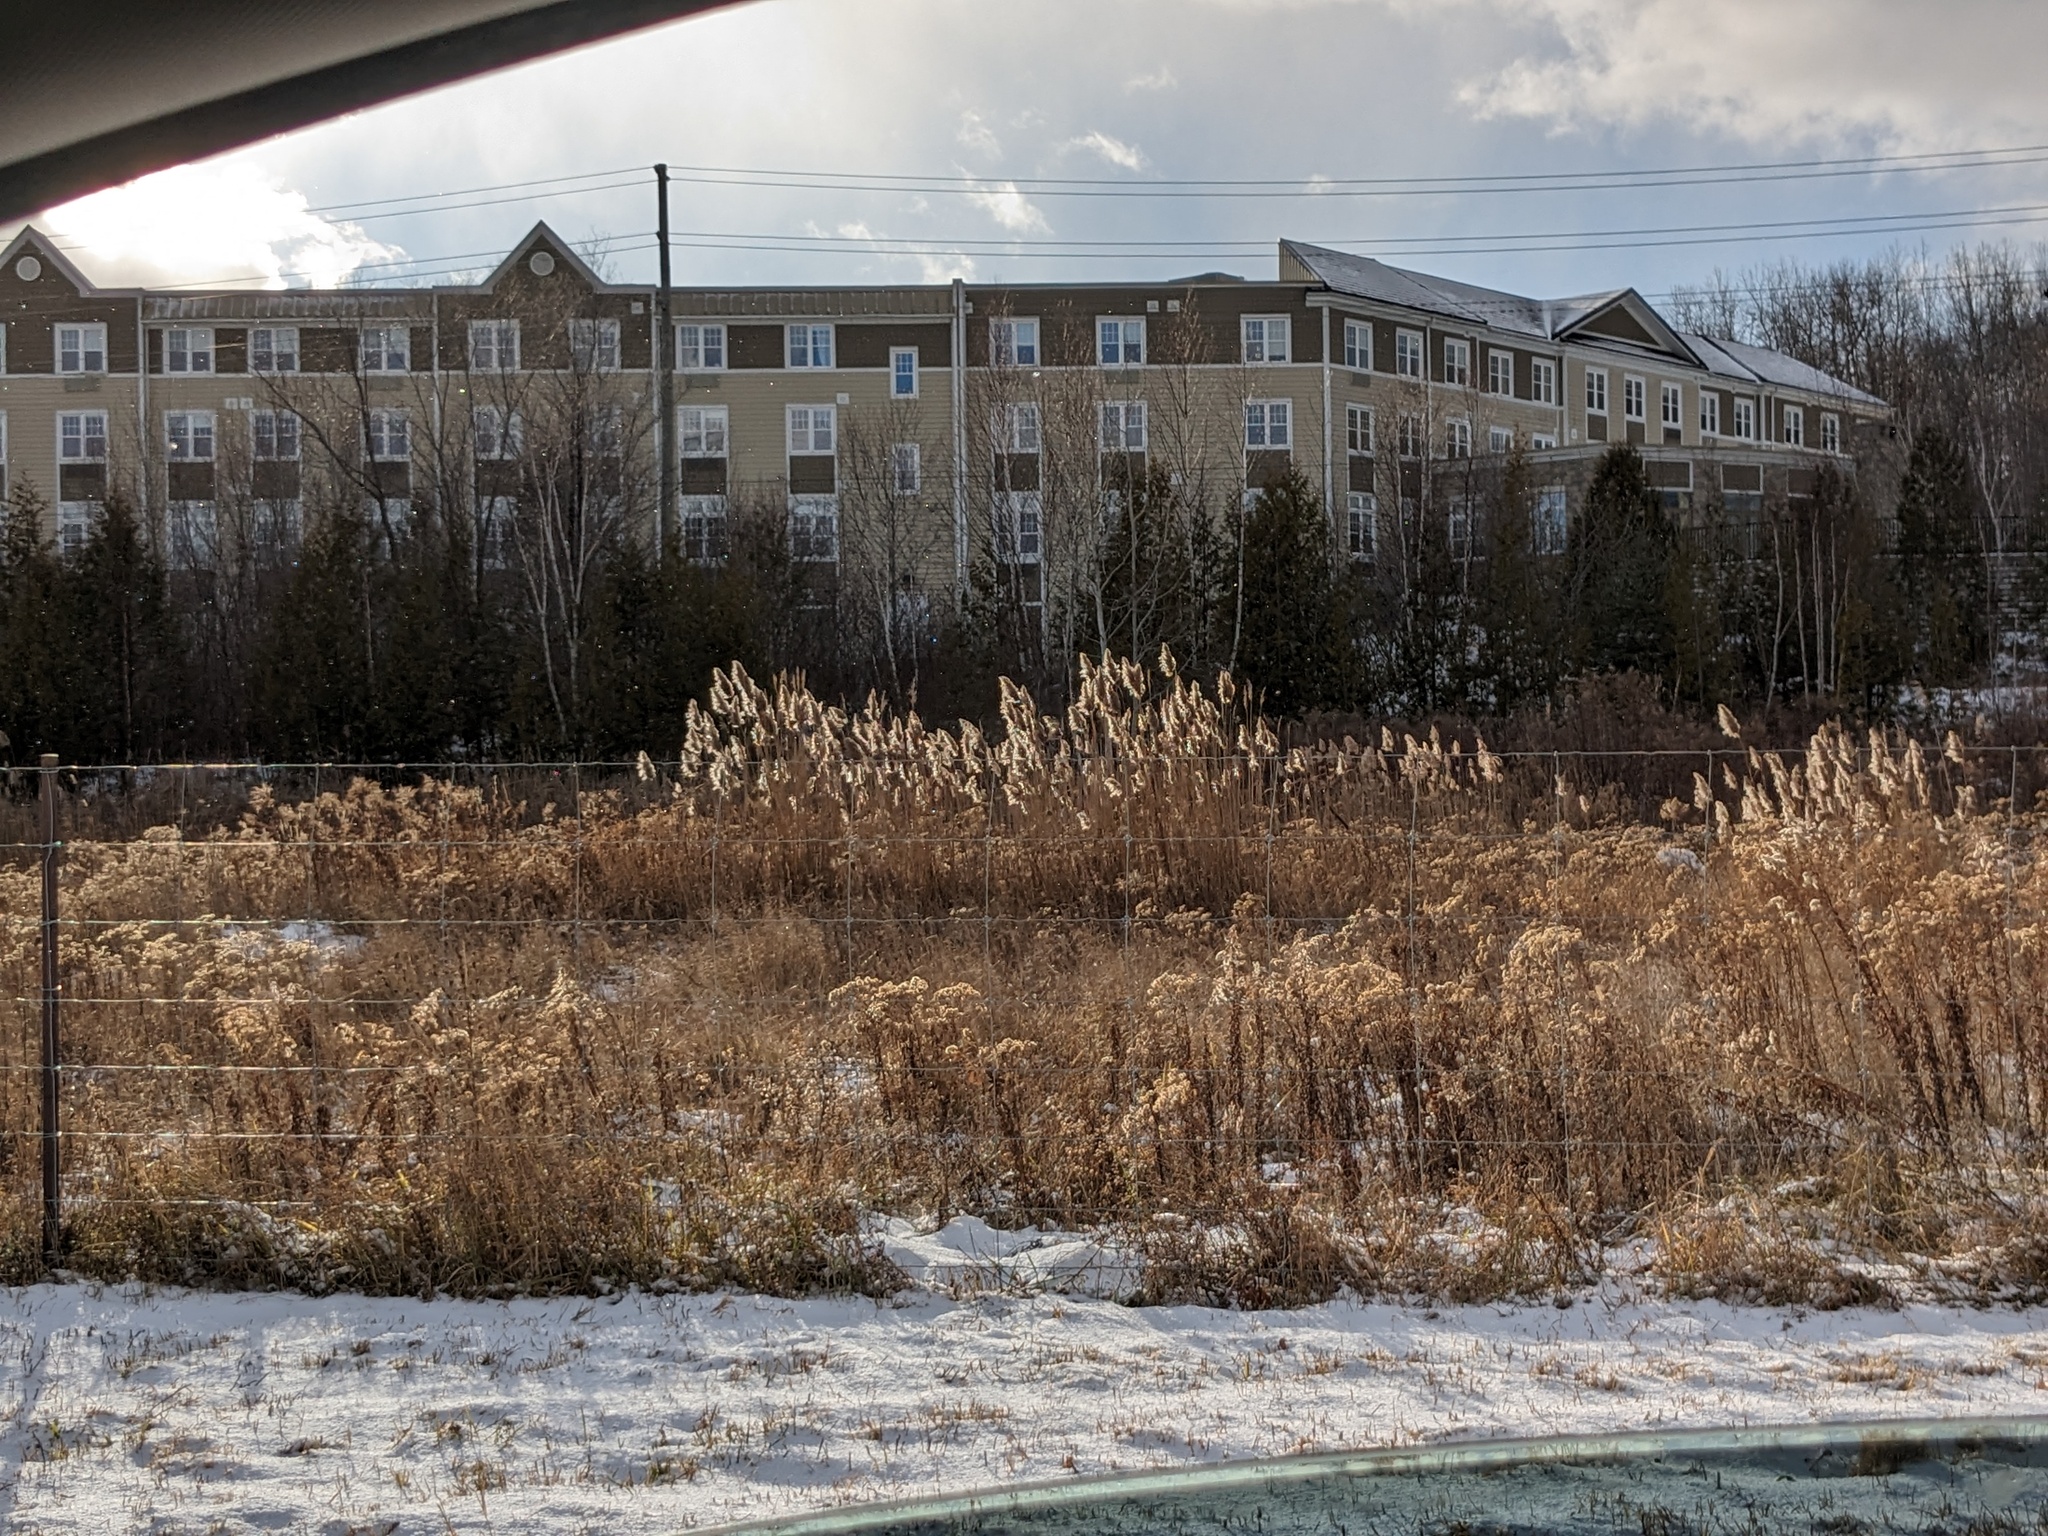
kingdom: Plantae
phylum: Tracheophyta
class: Liliopsida
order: Poales
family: Poaceae
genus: Phragmites
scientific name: Phragmites australis
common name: Common reed
